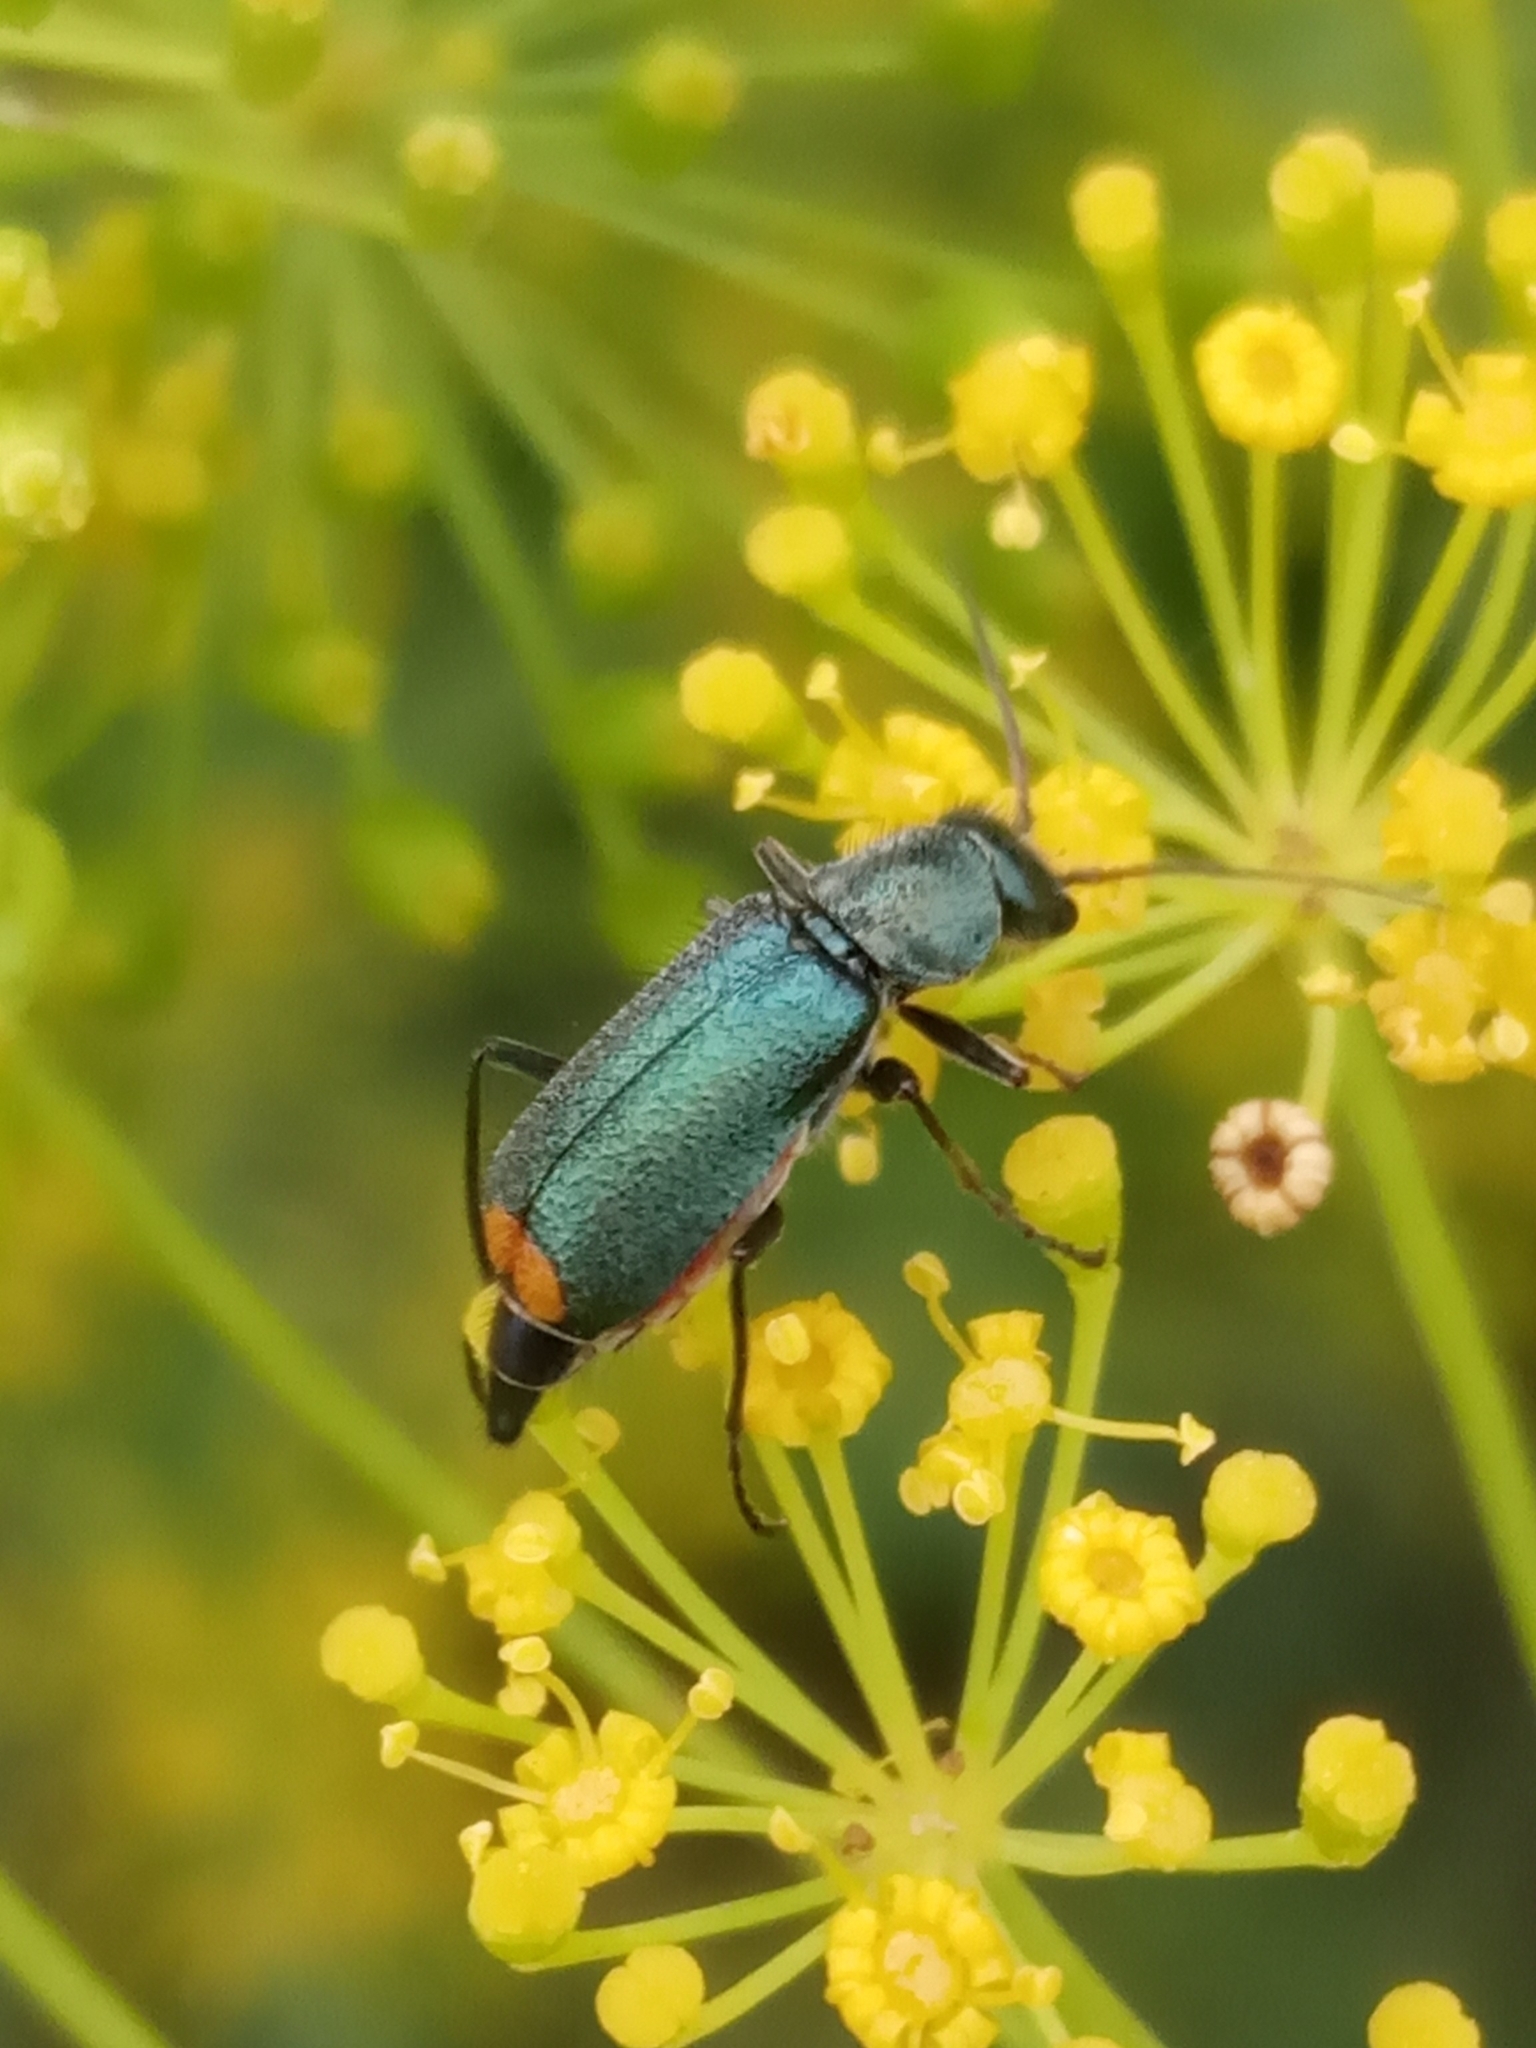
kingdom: Animalia
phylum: Arthropoda
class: Insecta
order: Coleoptera
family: Malachiidae
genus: Clanoptilus
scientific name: Clanoptilus
